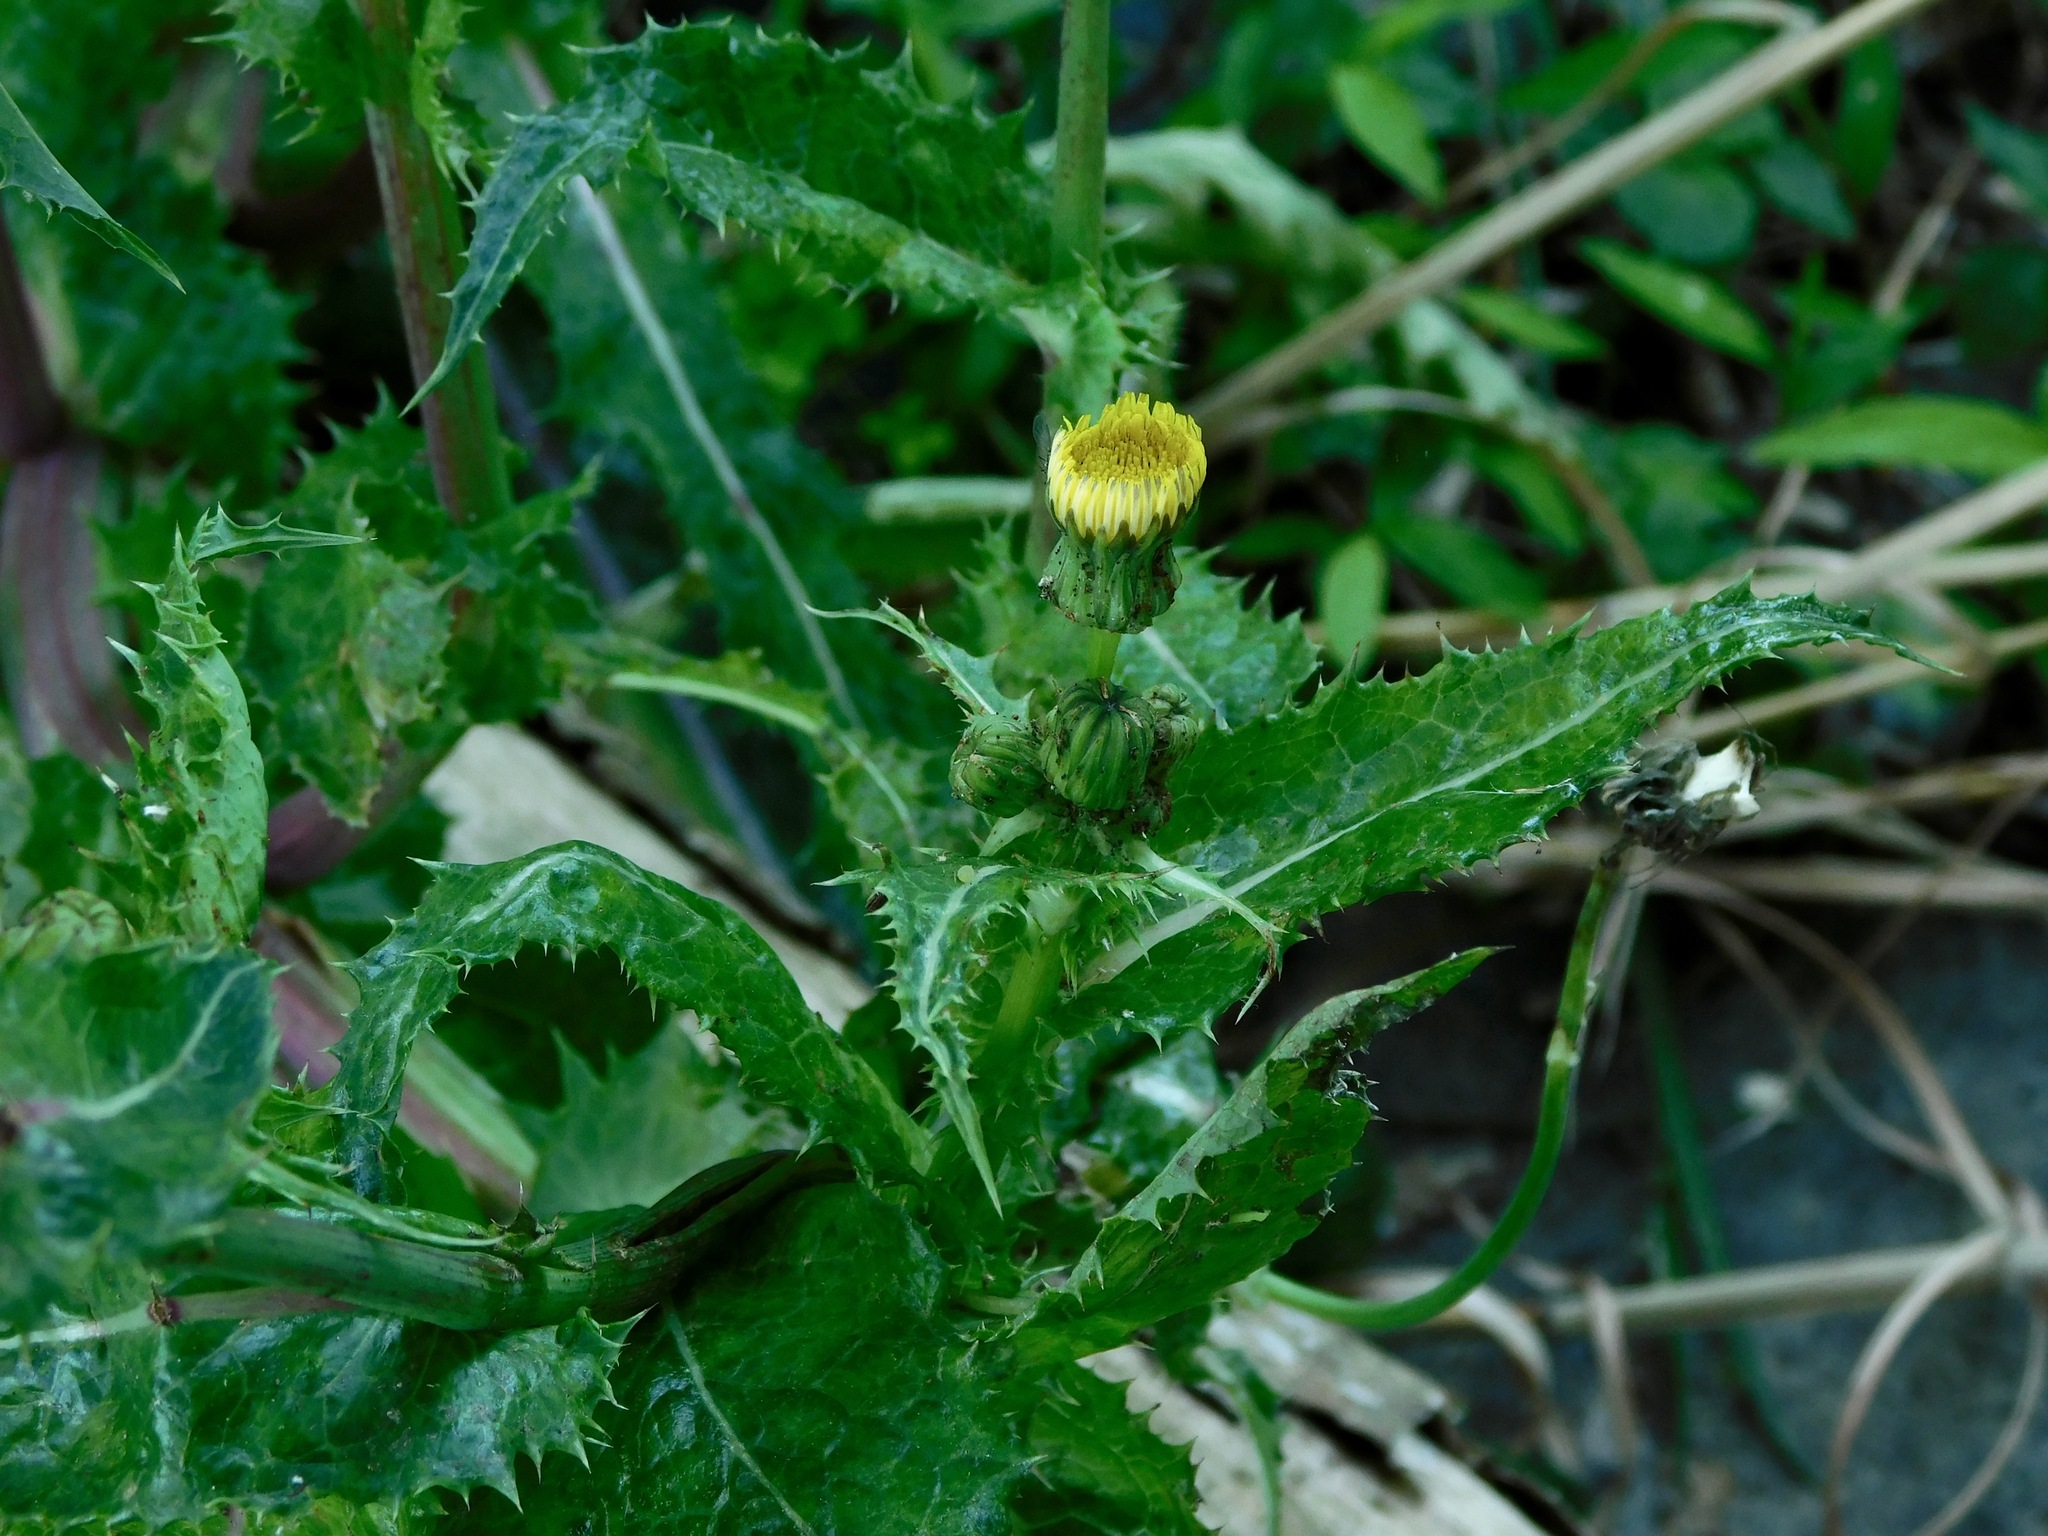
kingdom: Plantae
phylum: Tracheophyta
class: Magnoliopsida
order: Asterales
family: Asteraceae
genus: Sonchus
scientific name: Sonchus asper
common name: Prickly sow-thistle
